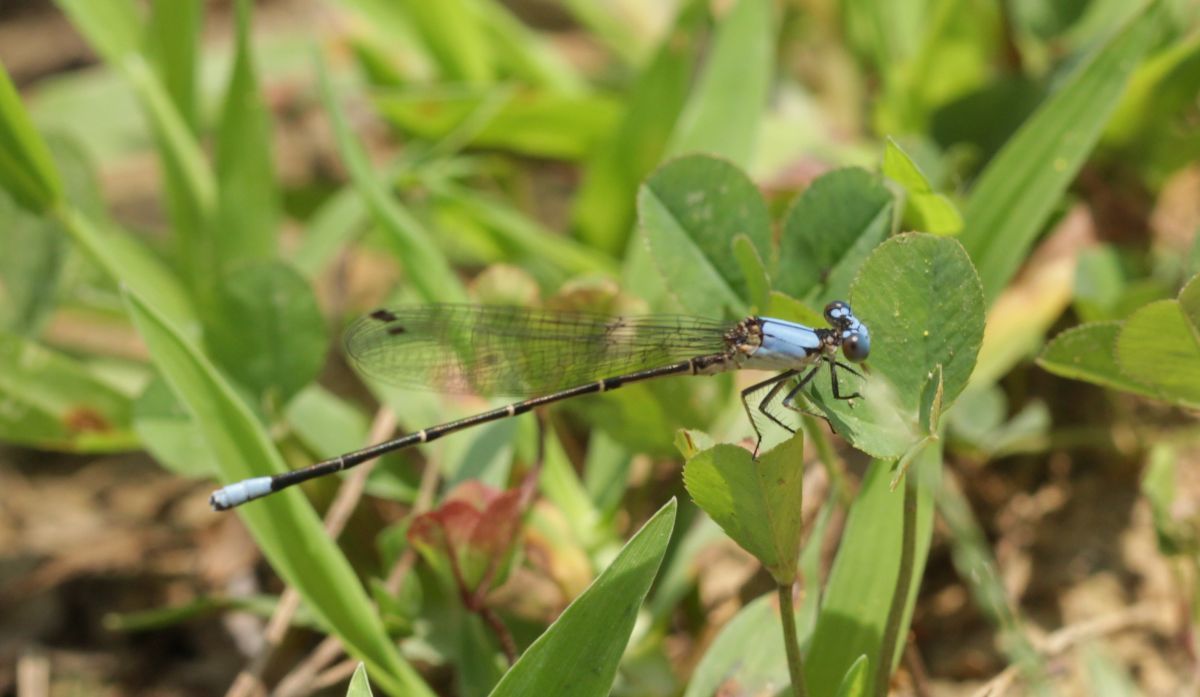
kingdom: Animalia
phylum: Arthropoda
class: Insecta
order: Odonata
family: Coenagrionidae
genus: Argia
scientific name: Argia apicalis
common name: Blue-fronted dancer
